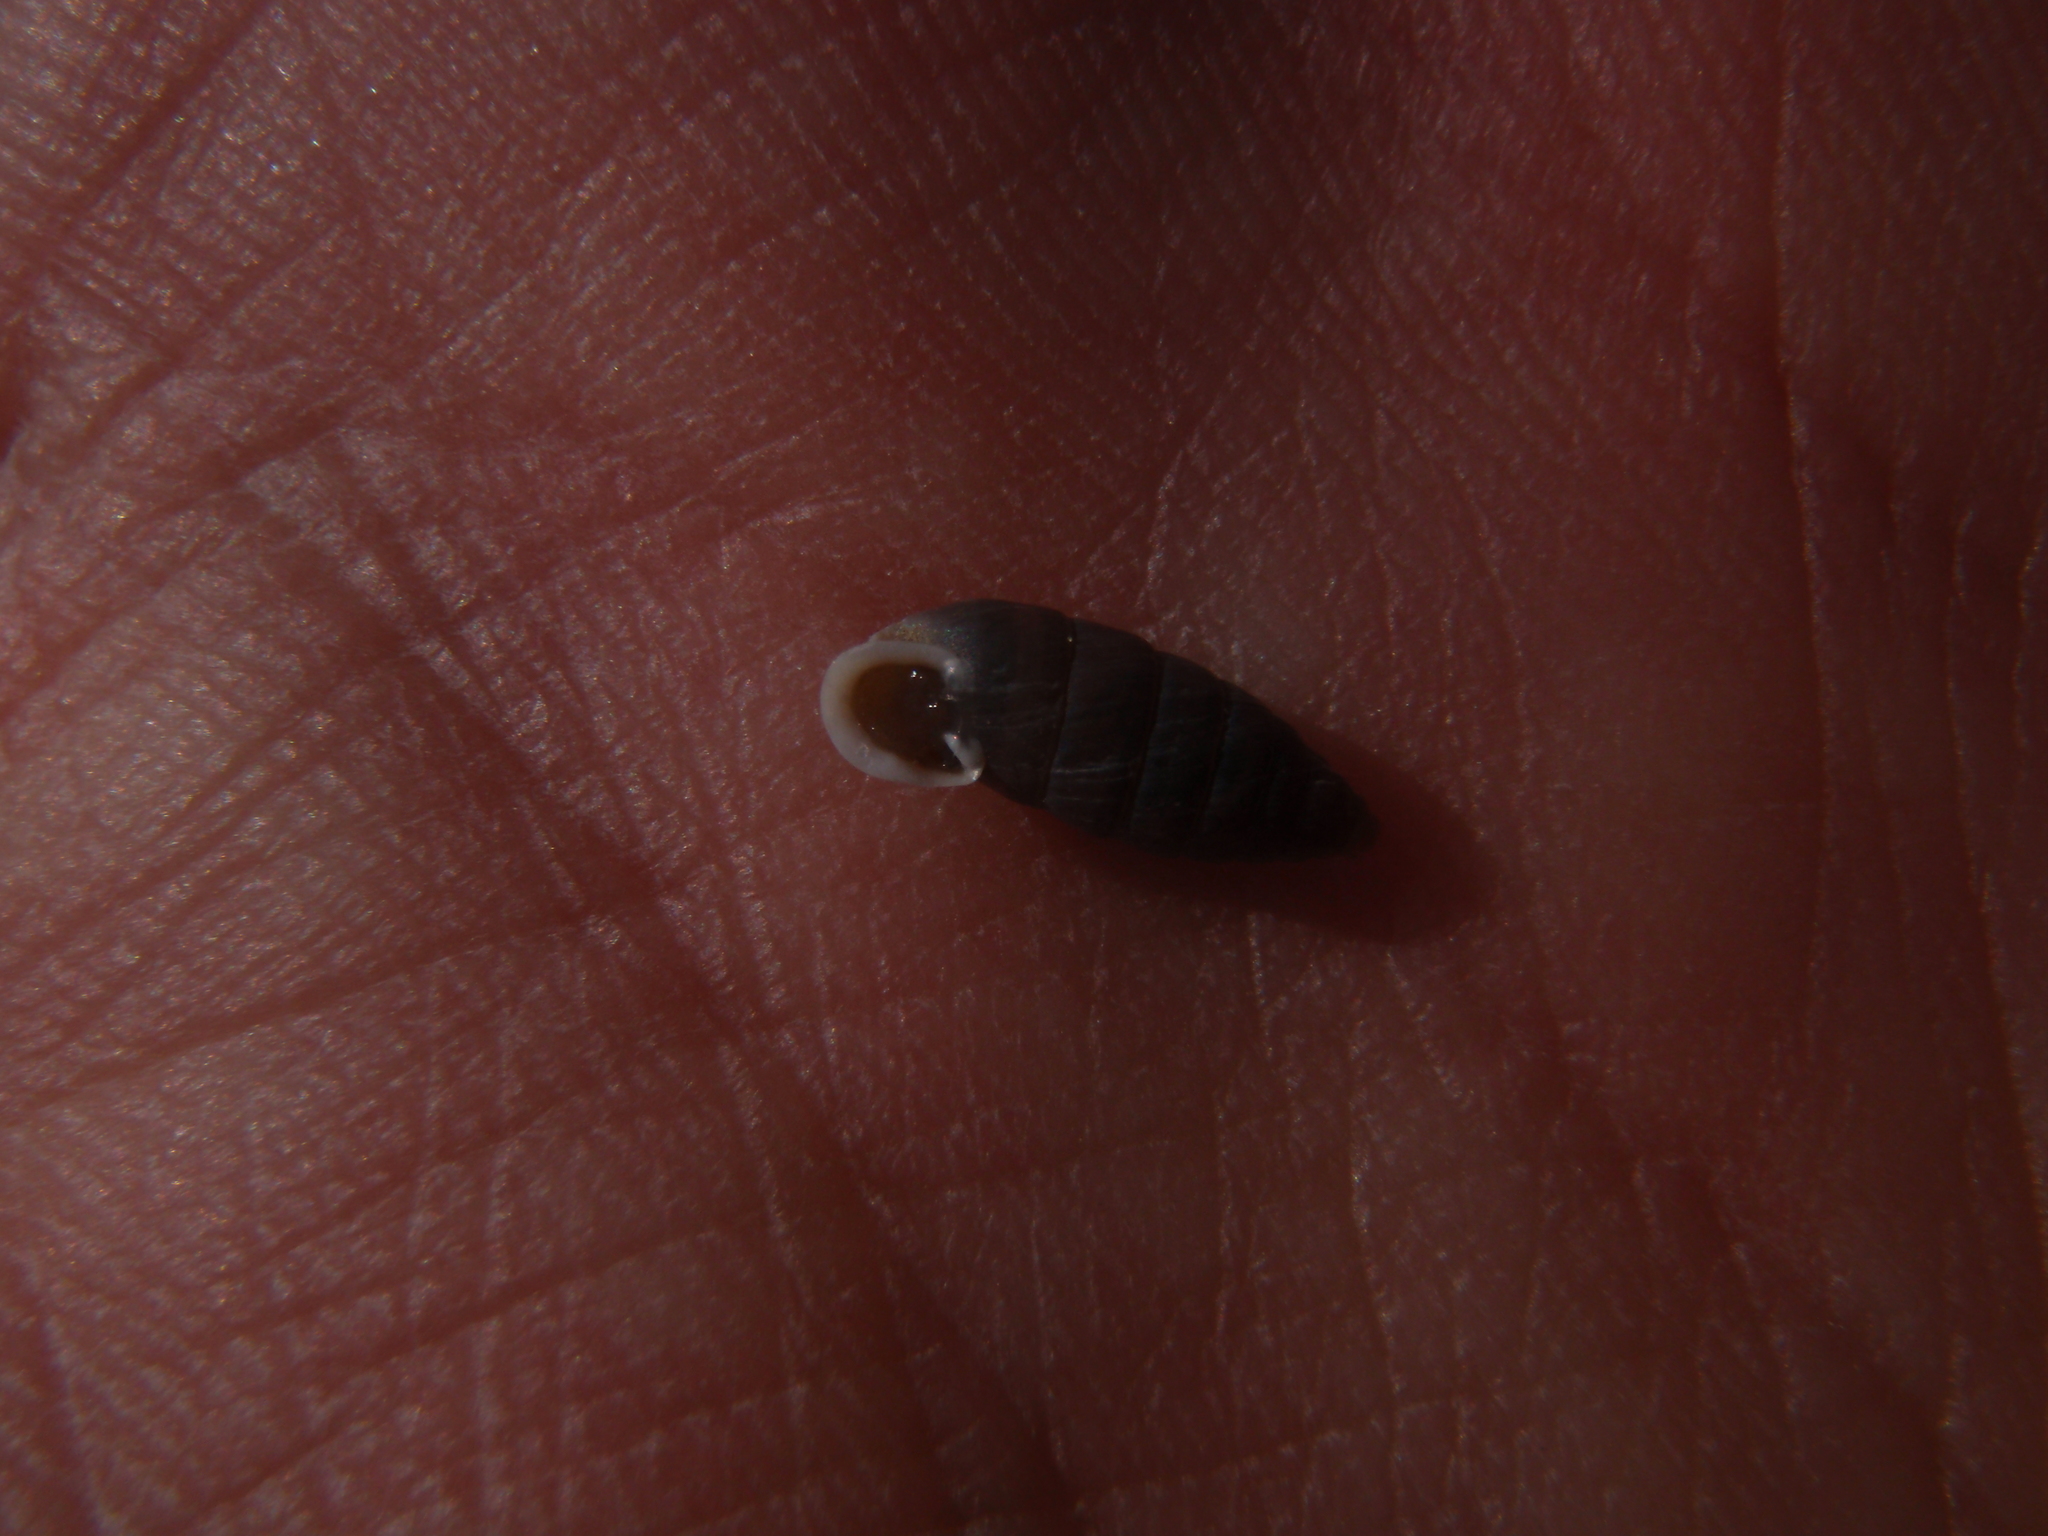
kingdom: Animalia
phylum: Mollusca
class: Gastropoda
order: Stylommatophora
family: Chondrinidae
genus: Granaria
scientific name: Granaria variabilis
